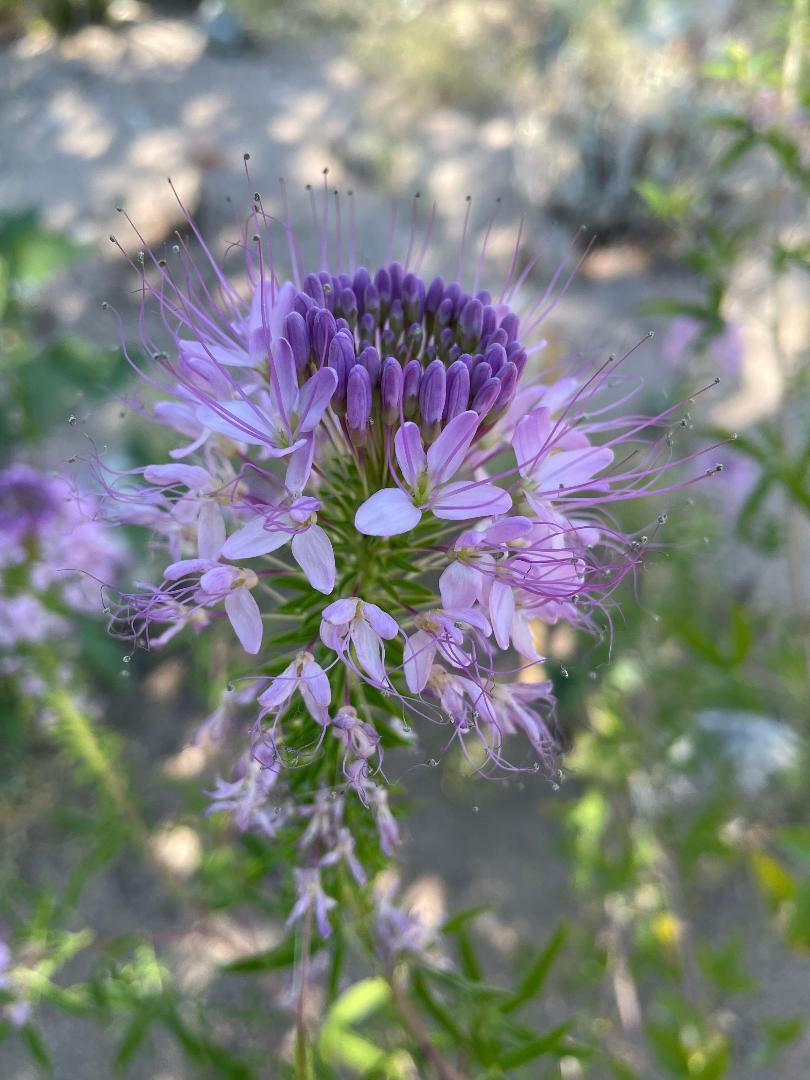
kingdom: Plantae
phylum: Tracheophyta
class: Magnoliopsida
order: Brassicales
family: Cleomaceae
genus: Cleomella
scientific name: Cleomella serrulata
